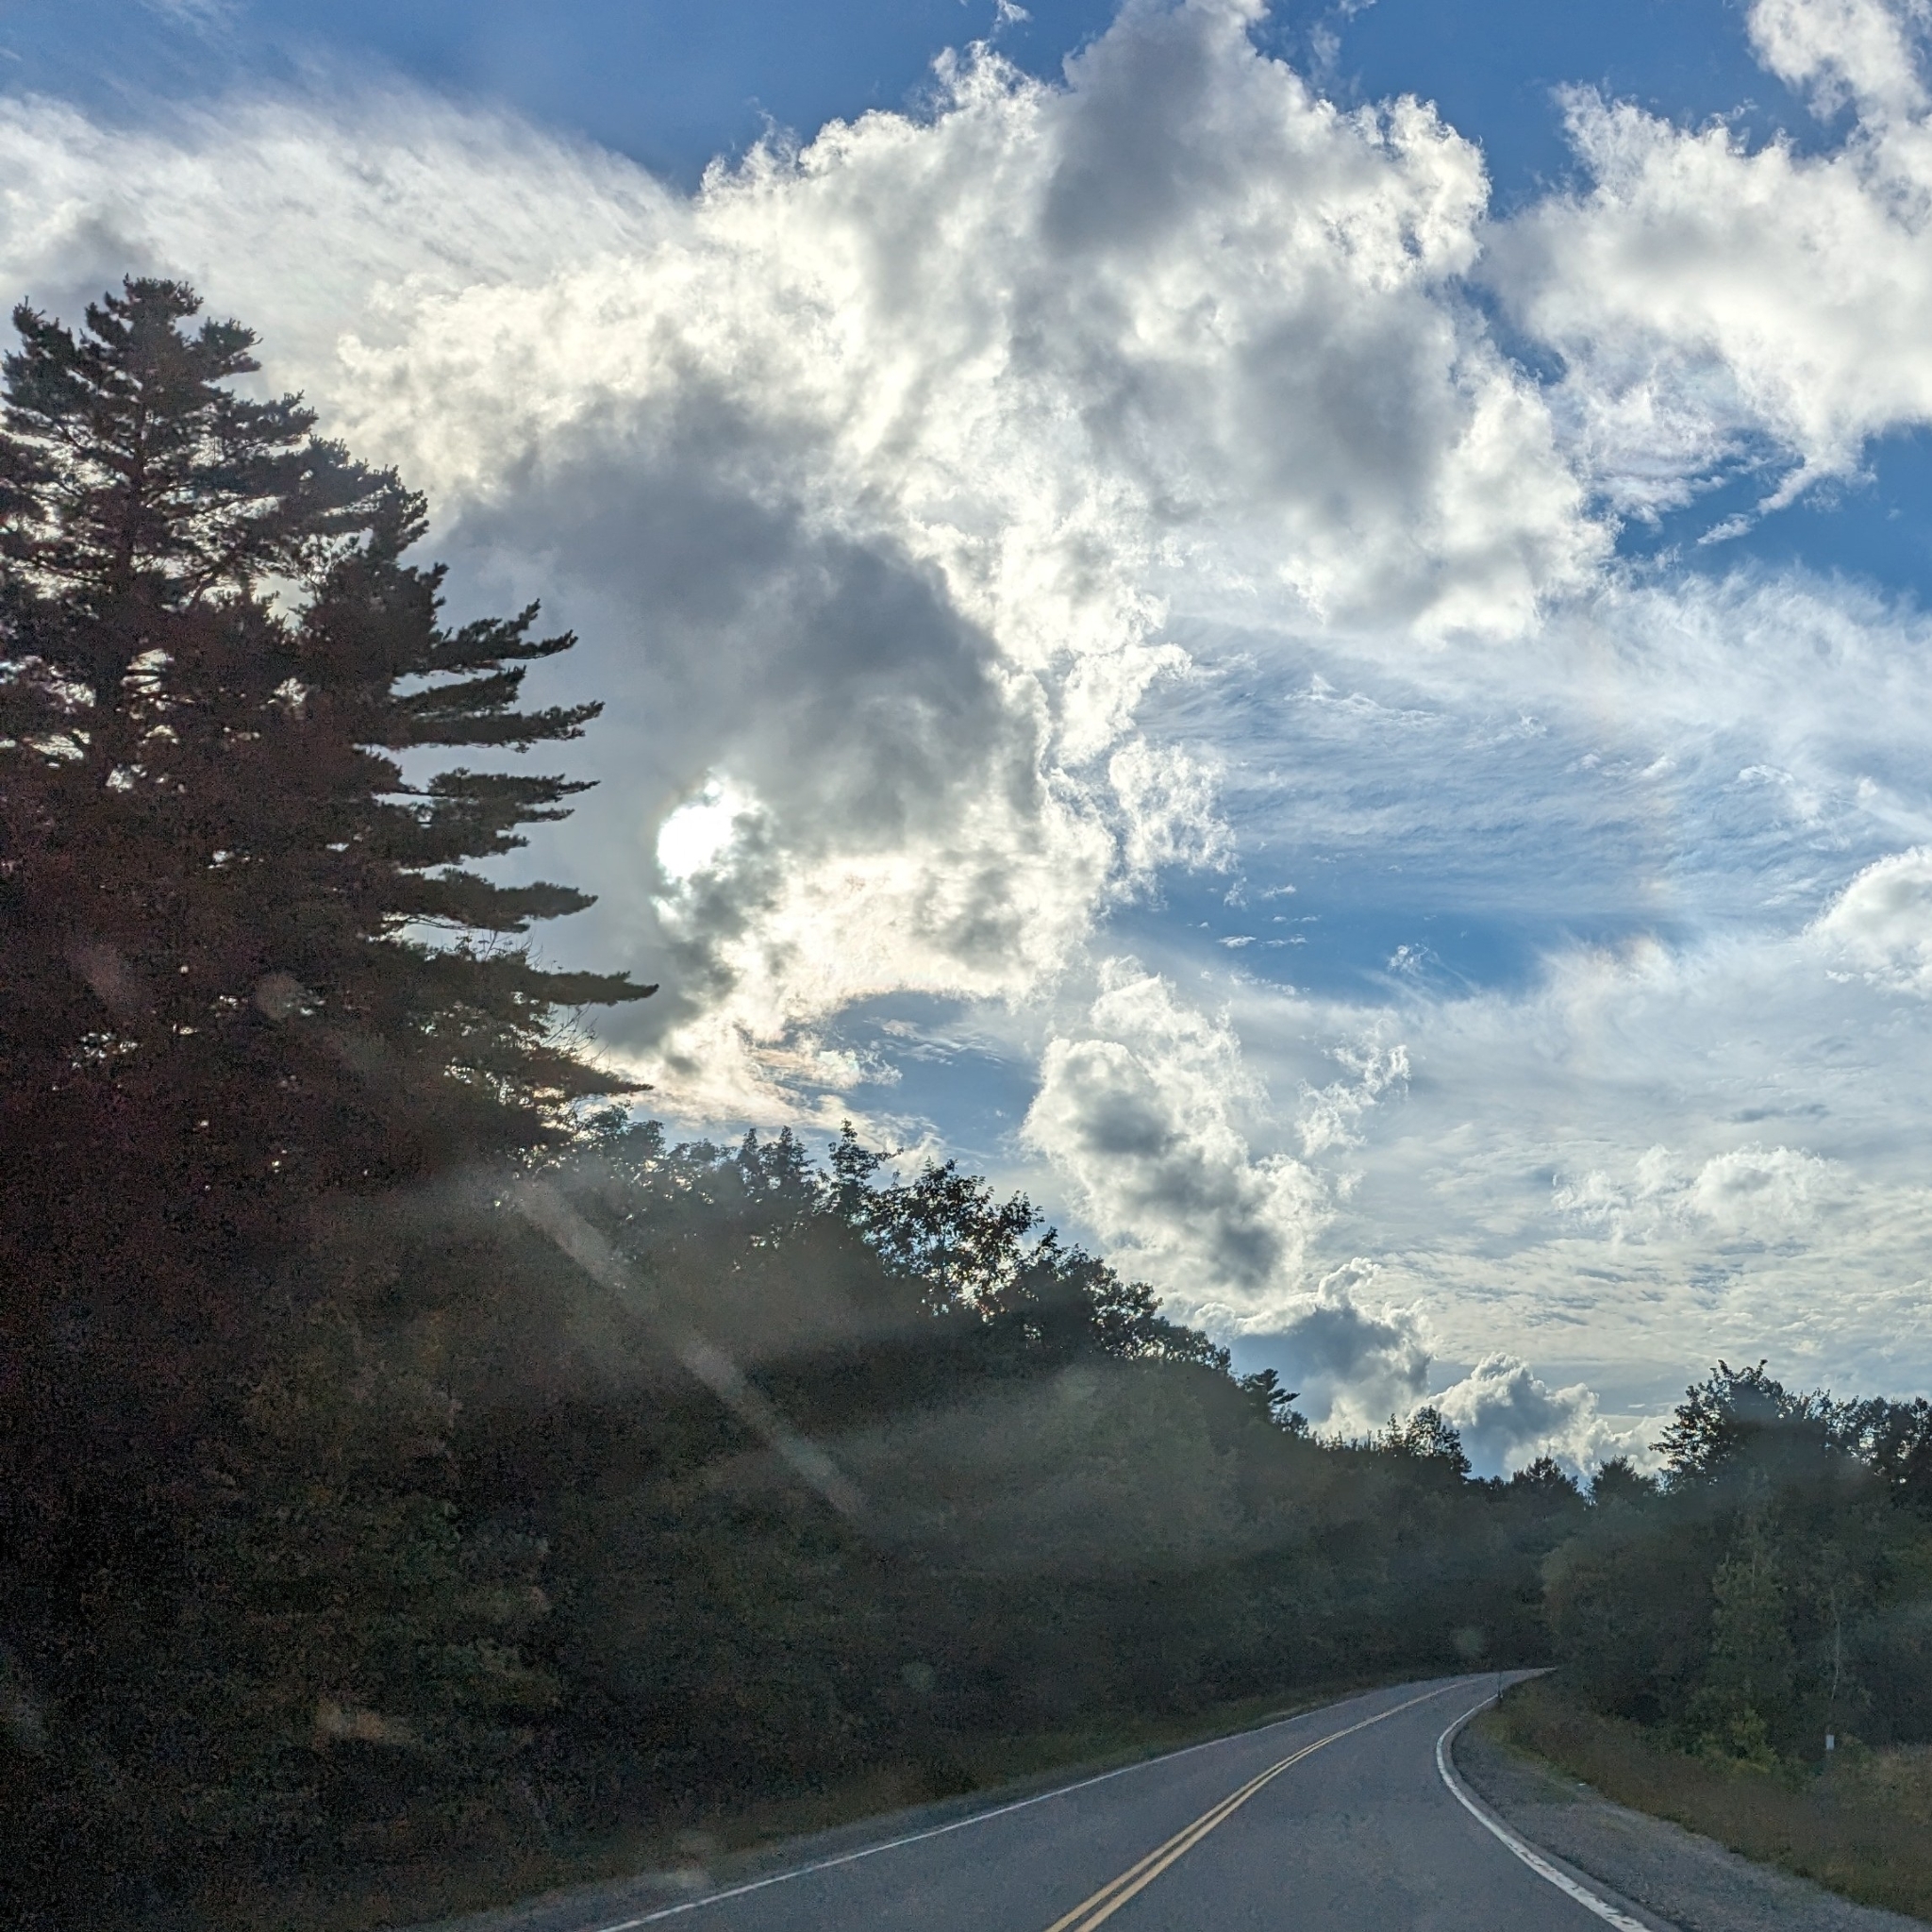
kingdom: Plantae
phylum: Tracheophyta
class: Pinopsida
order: Pinales
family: Pinaceae
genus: Pinus
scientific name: Pinus strobus
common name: Weymouth pine
